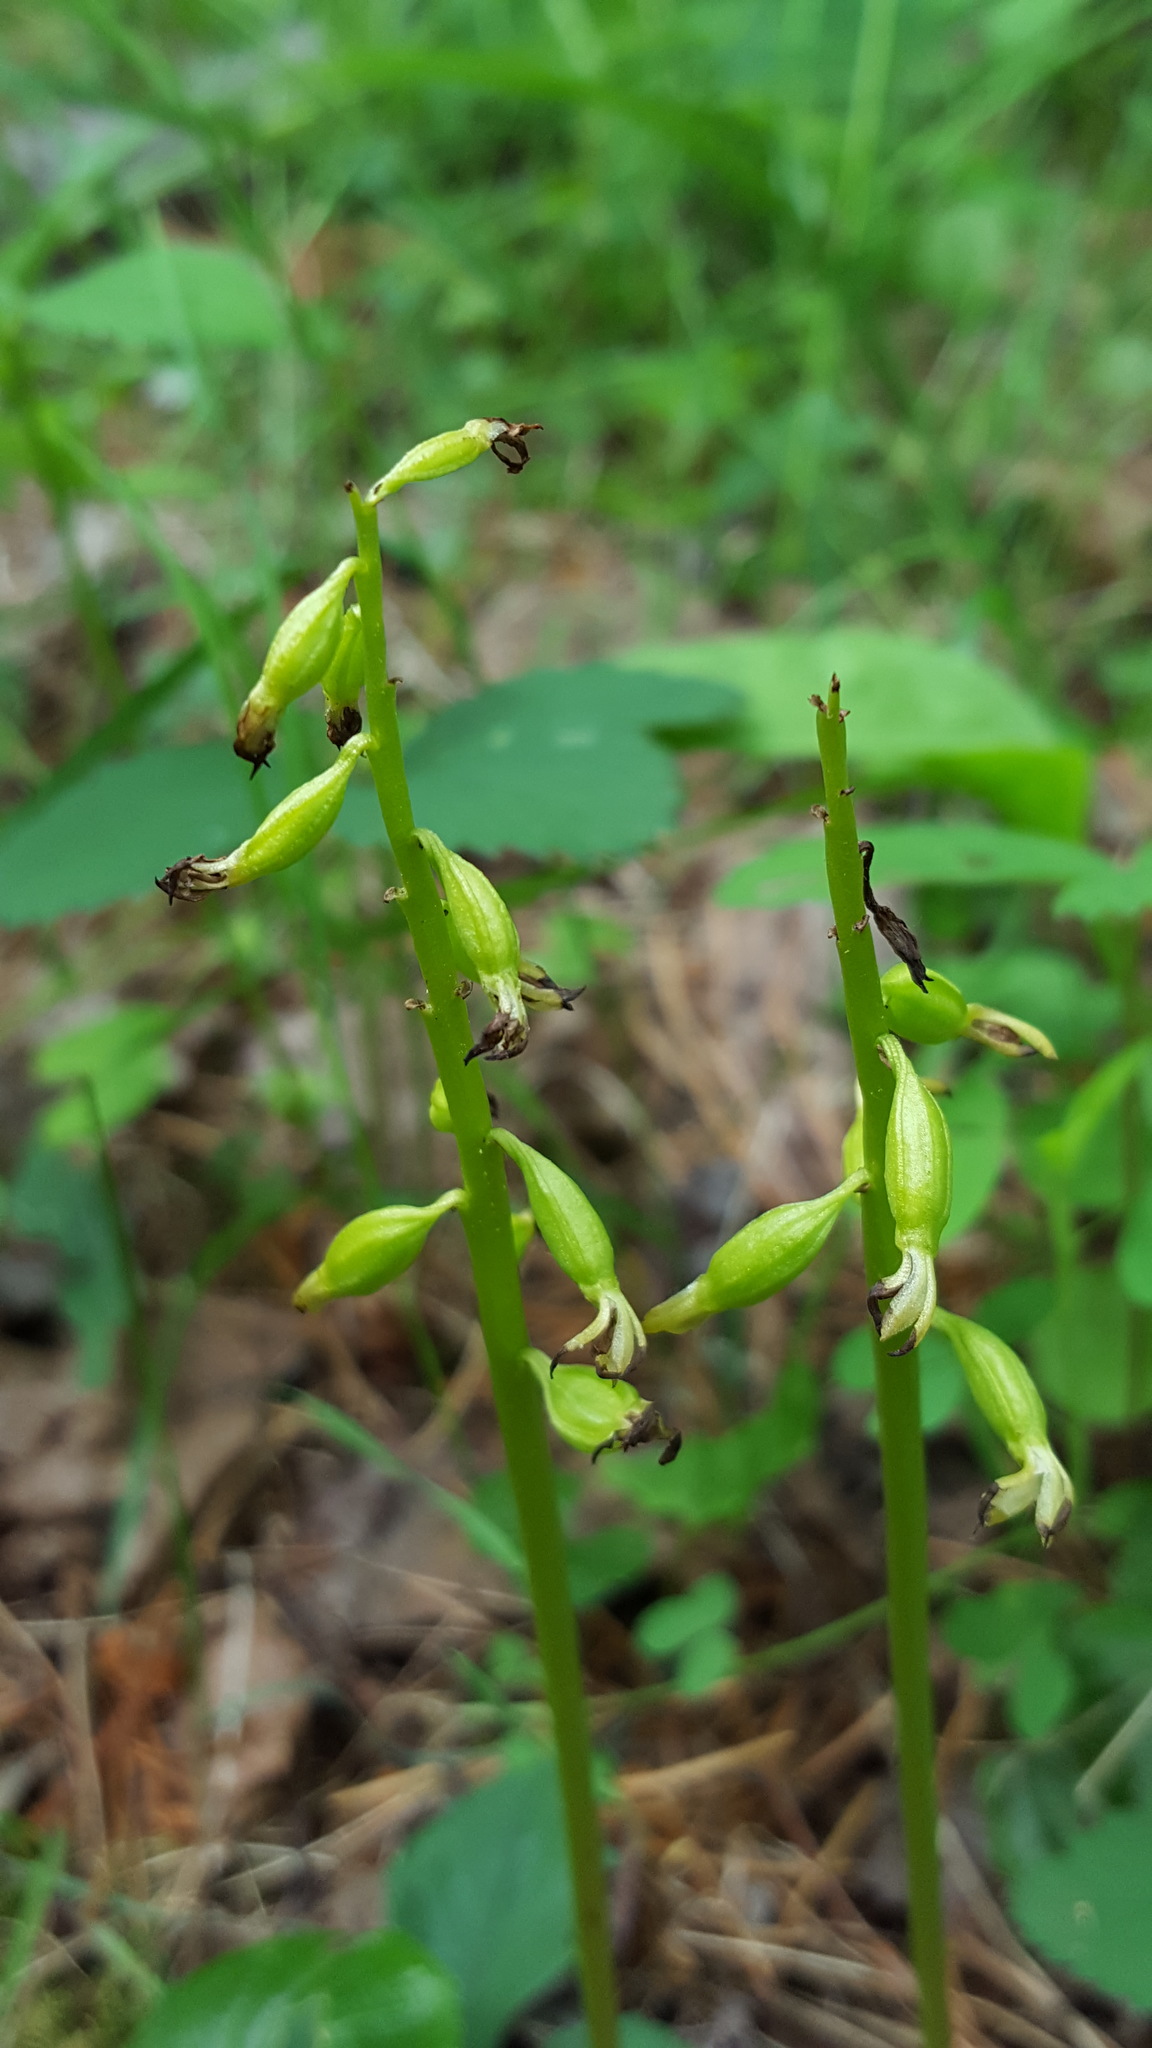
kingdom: Plantae
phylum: Tracheophyta
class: Liliopsida
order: Asparagales
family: Orchidaceae
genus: Corallorhiza
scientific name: Corallorhiza trifida
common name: Yellow coralroot
